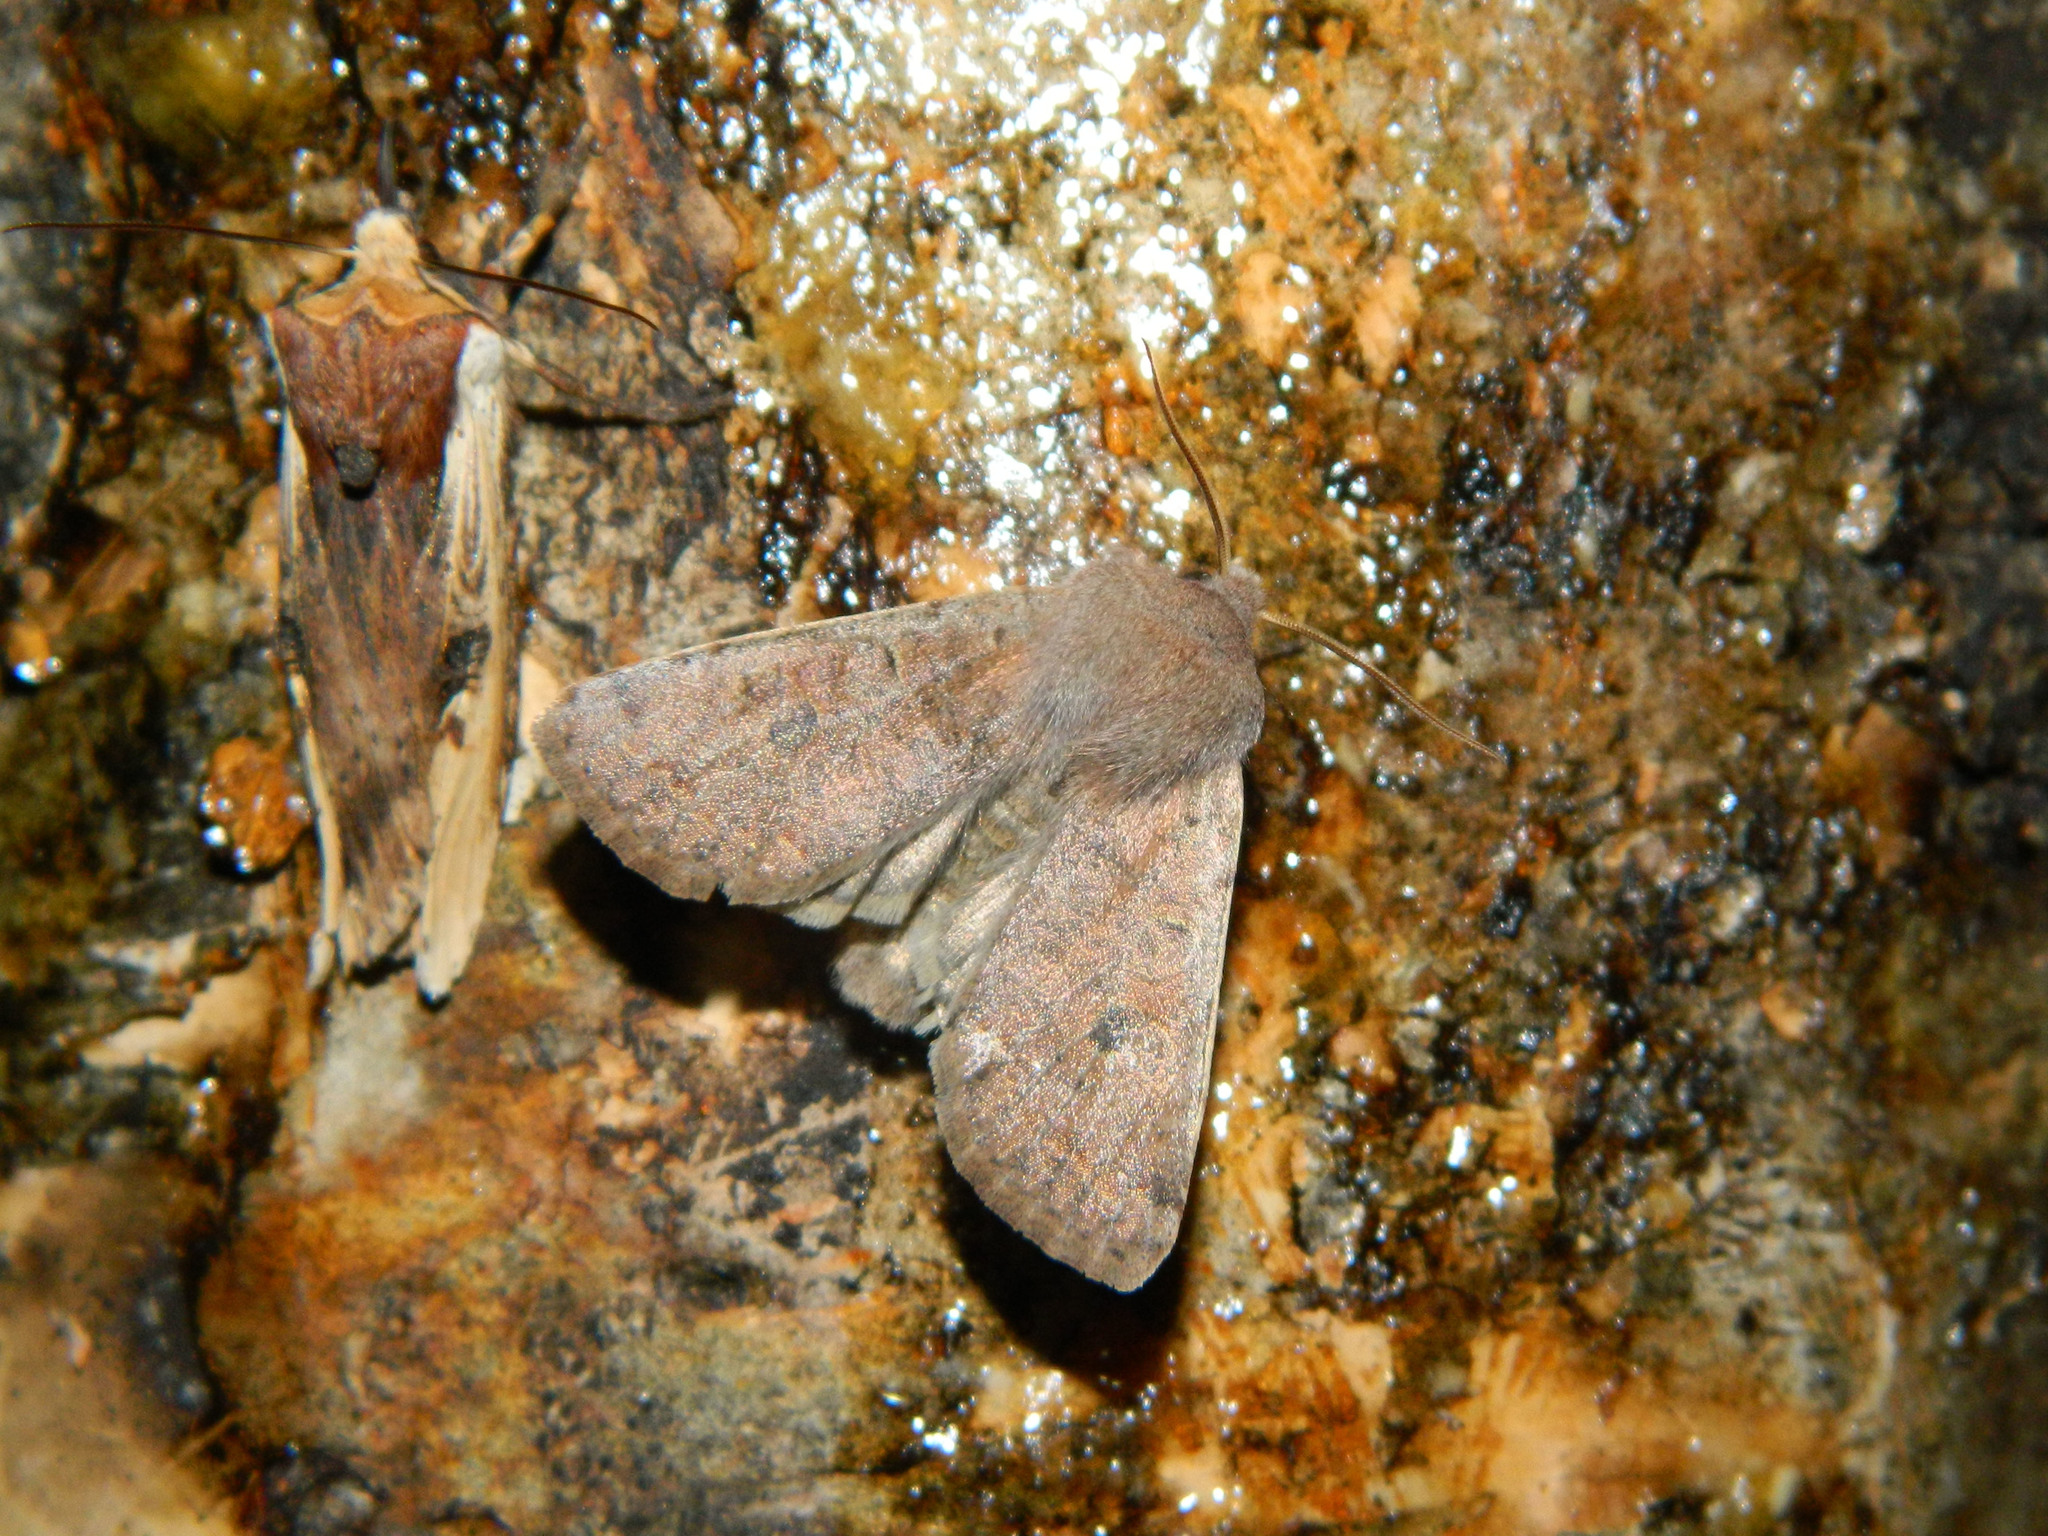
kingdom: Animalia
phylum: Arthropoda
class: Insecta
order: Lepidoptera
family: Noctuidae
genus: Orthosia
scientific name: Orthosia hibisci
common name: Green fruitworm
